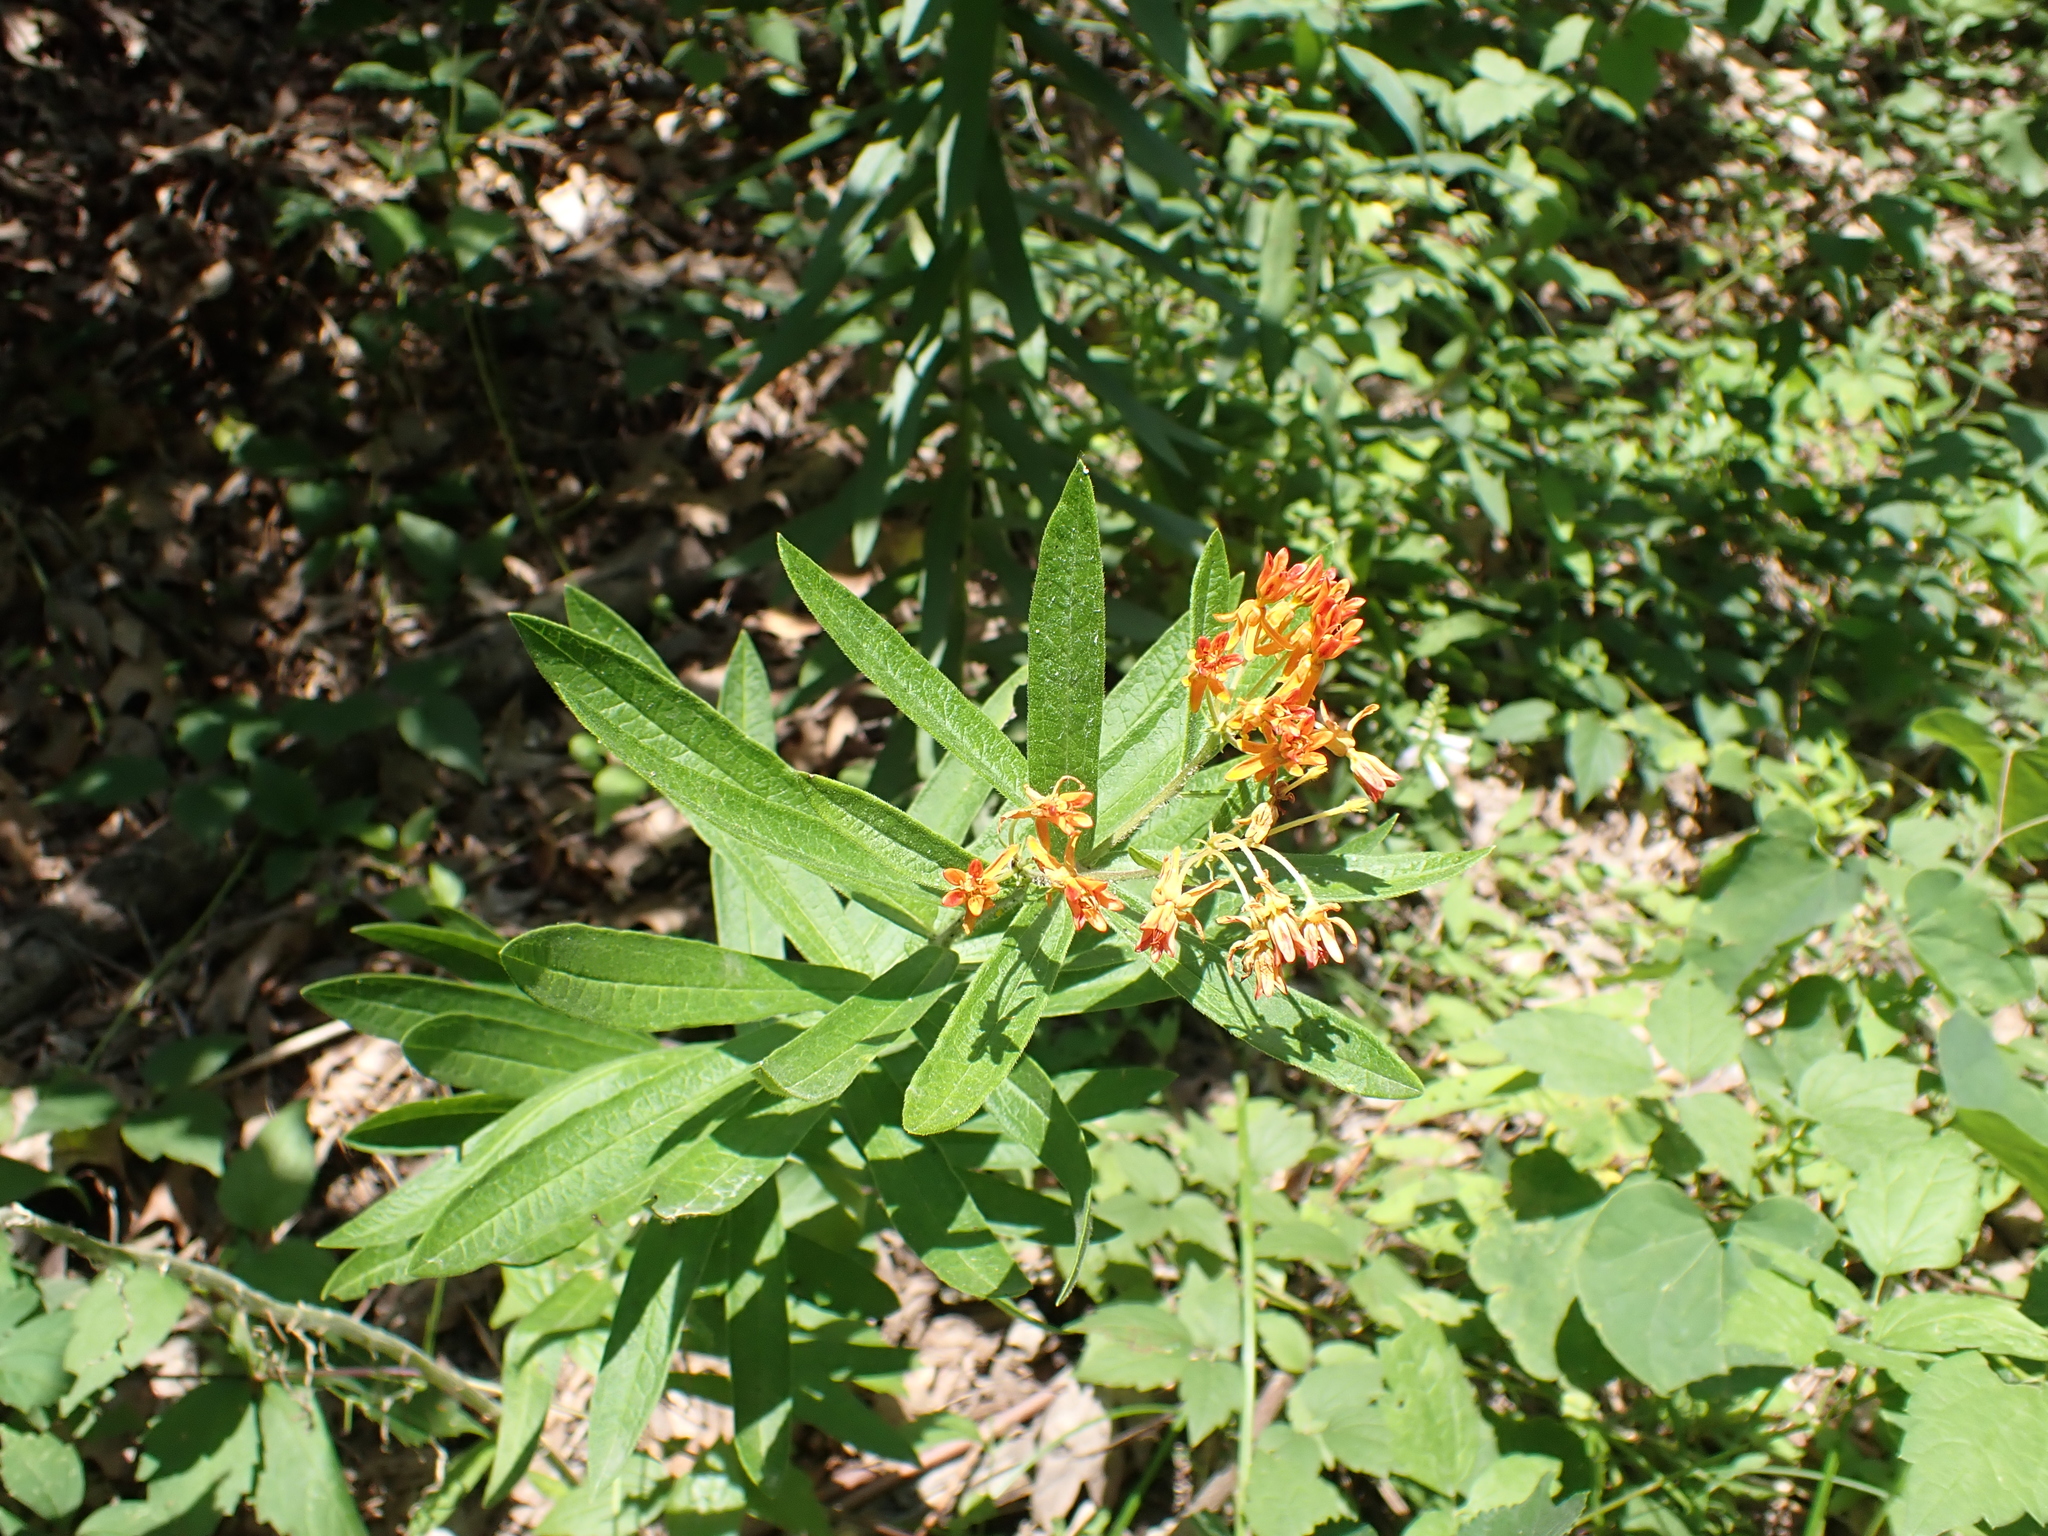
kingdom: Plantae
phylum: Tracheophyta
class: Magnoliopsida
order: Gentianales
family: Apocynaceae
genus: Asclepias
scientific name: Asclepias tuberosa
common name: Butterfly milkweed
